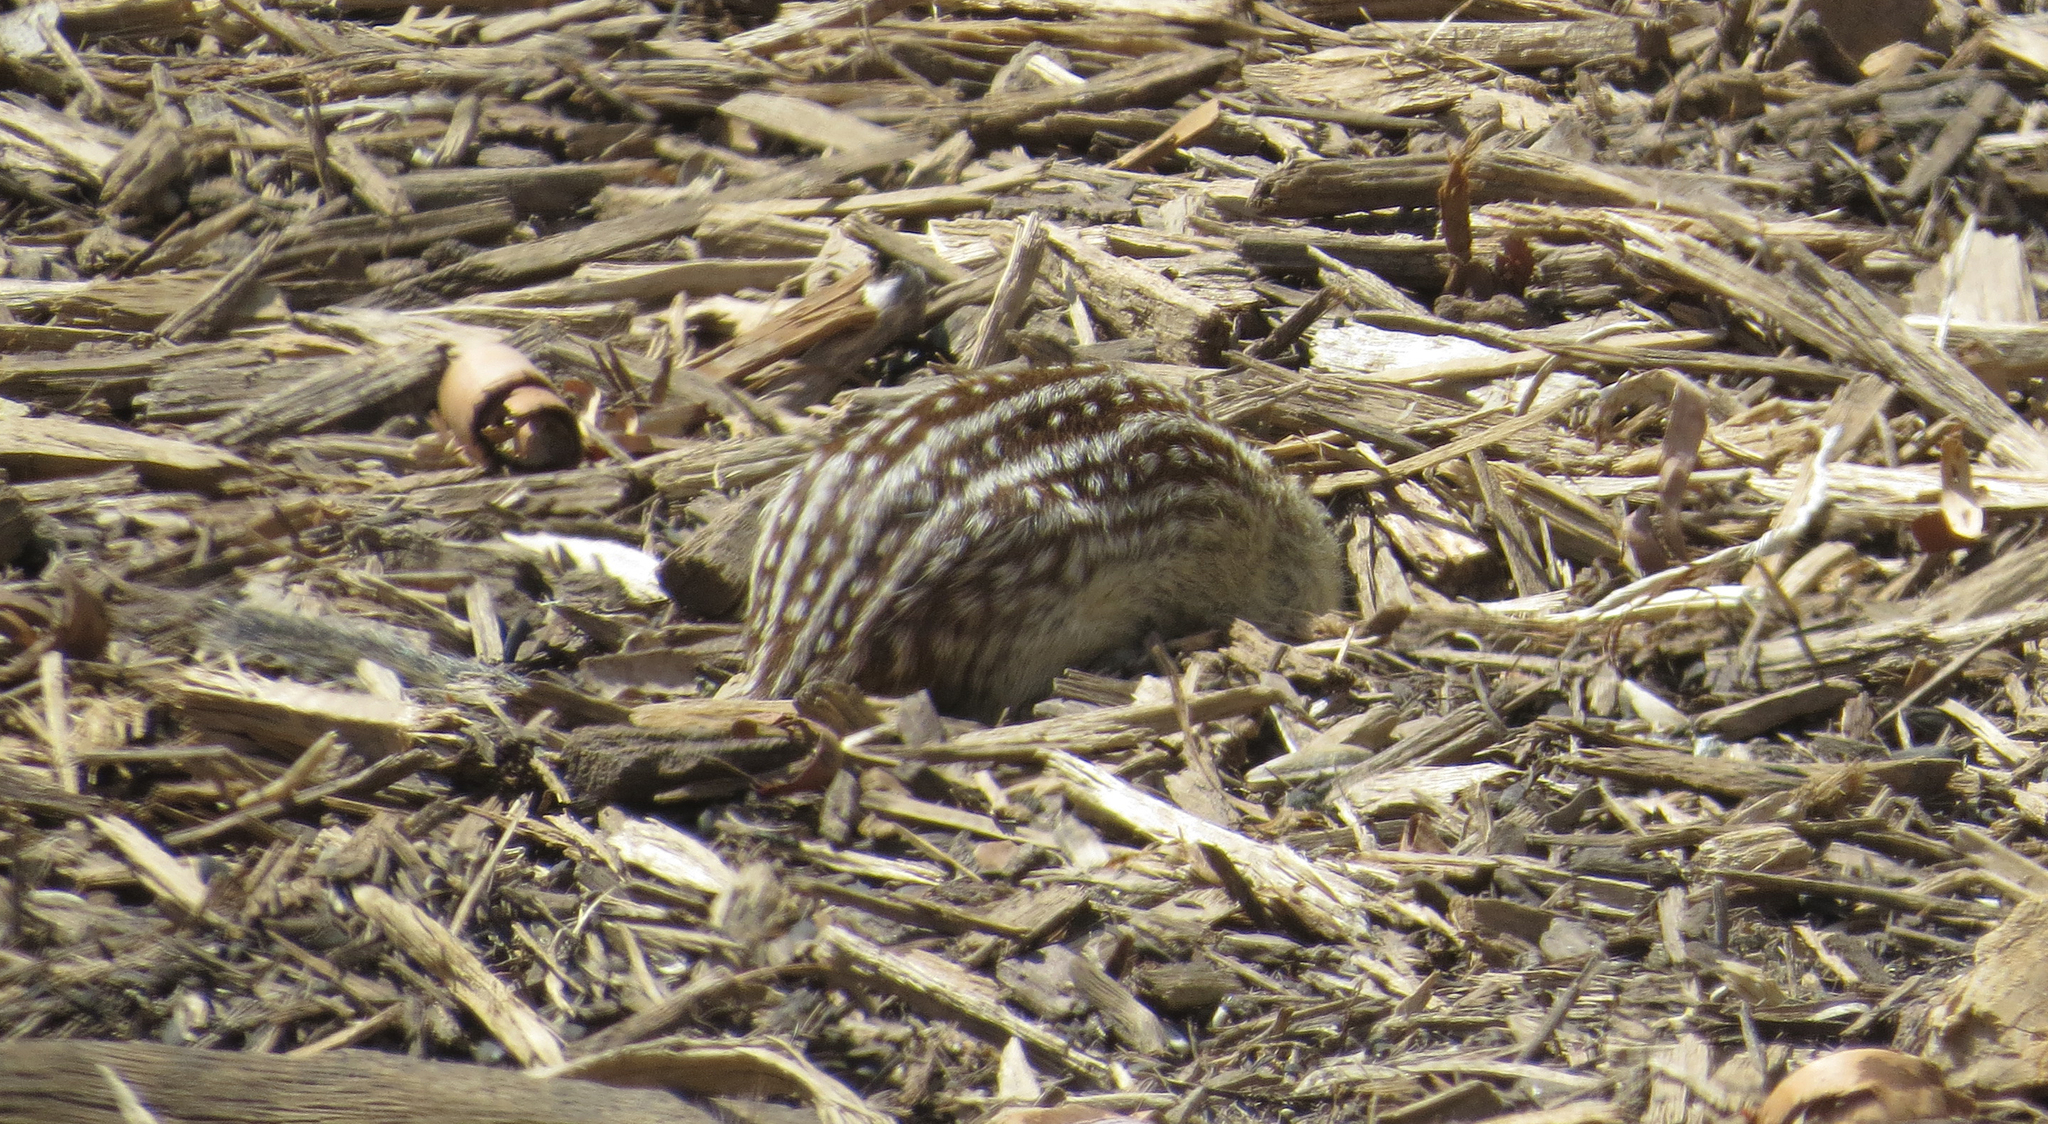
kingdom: Animalia
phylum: Chordata
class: Mammalia
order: Rodentia
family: Sciuridae
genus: Ictidomys
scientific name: Ictidomys tridecemlineatus
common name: Thirteen-lined ground squirrel
